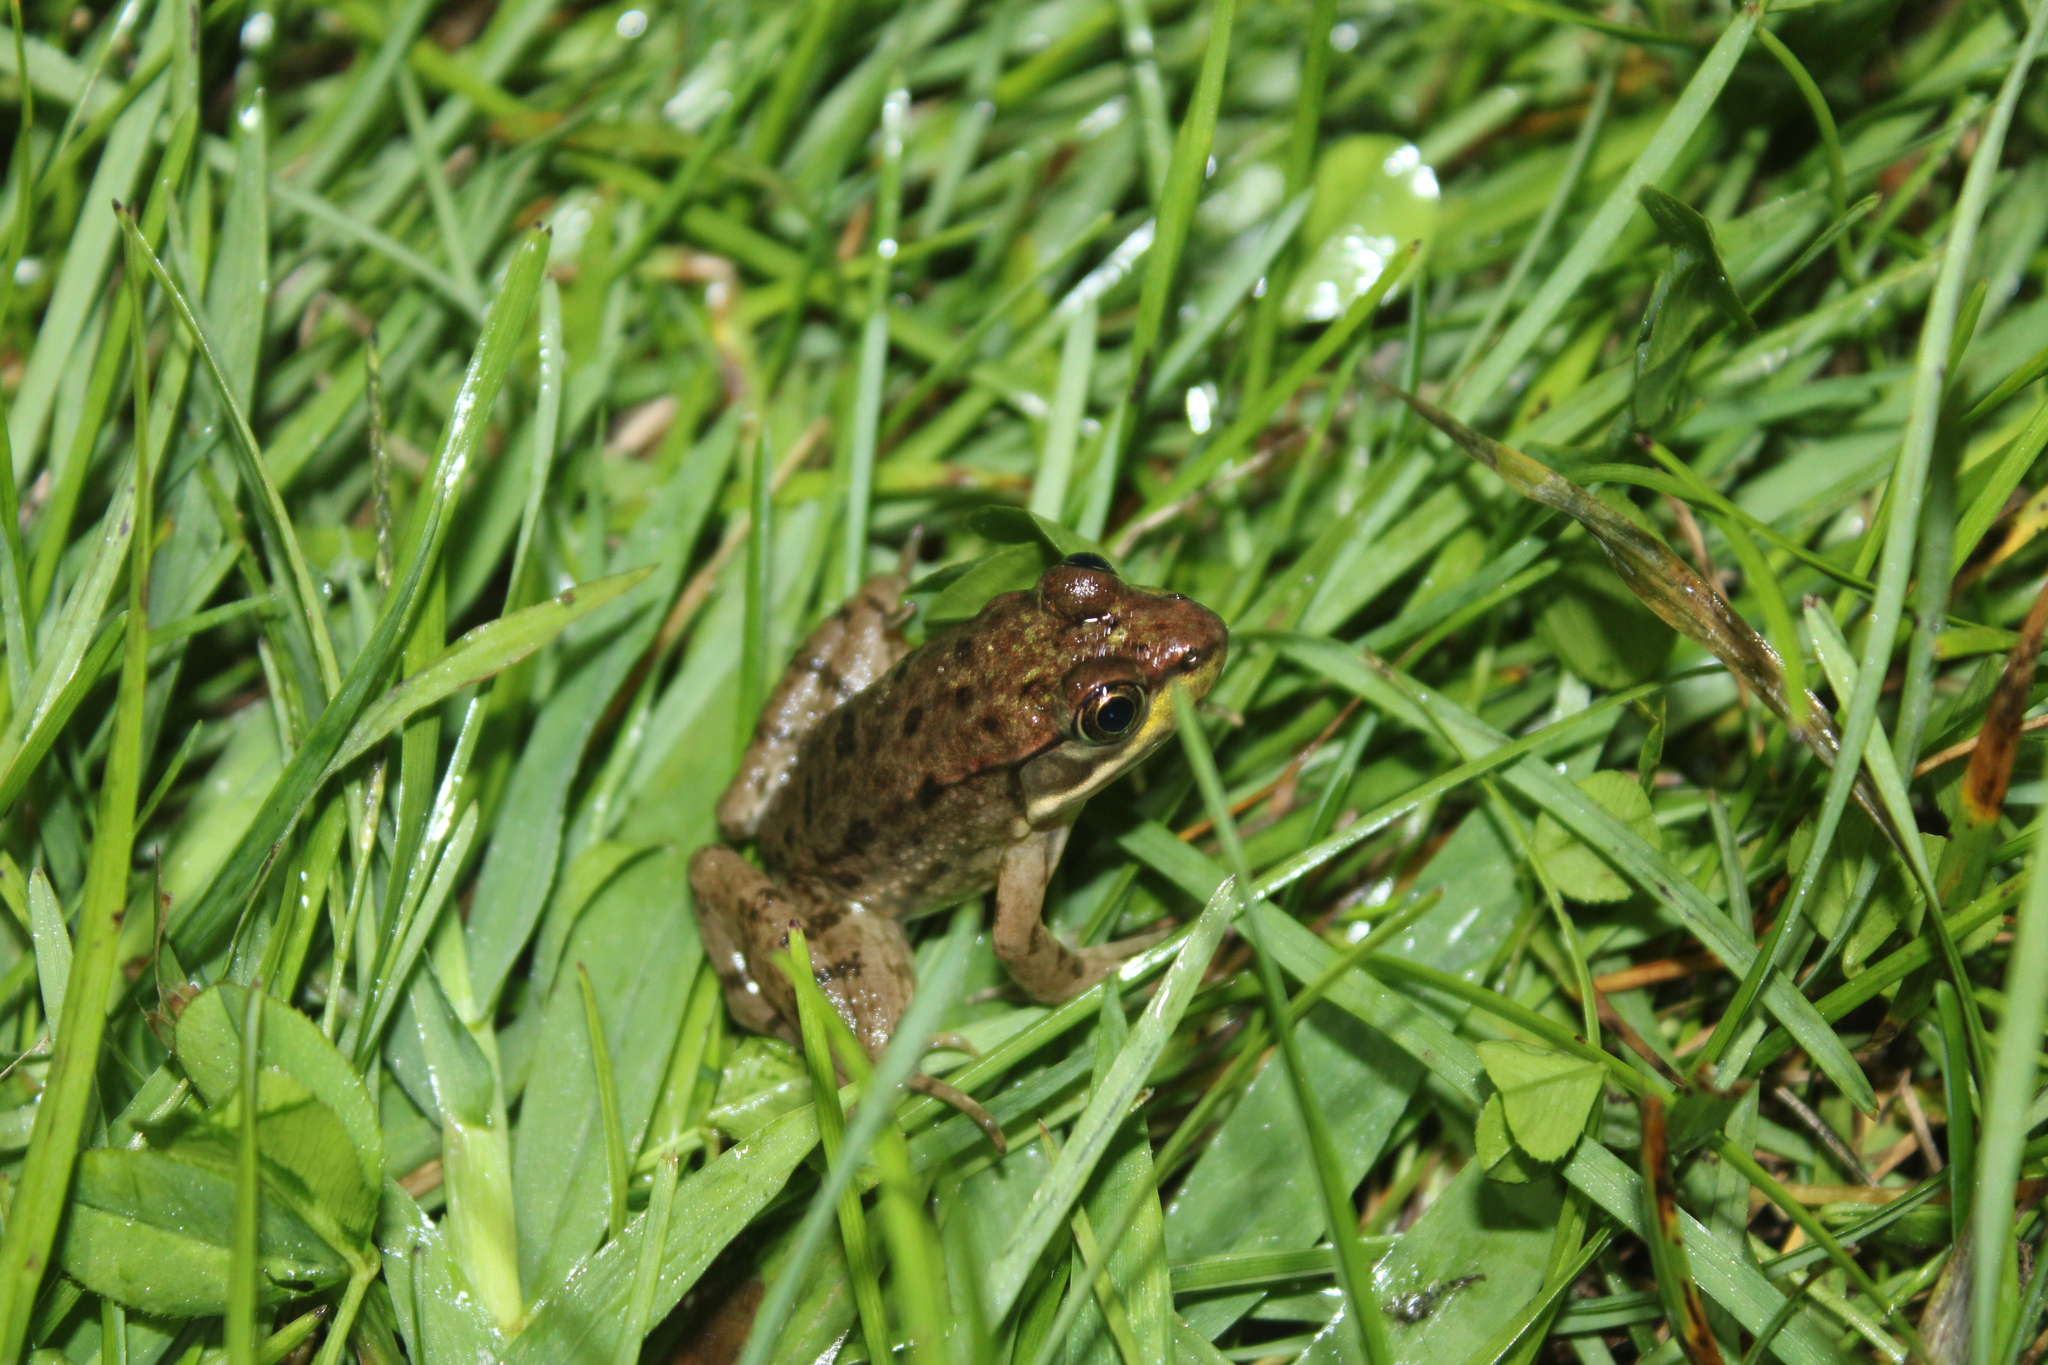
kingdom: Animalia
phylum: Chordata
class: Amphibia
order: Anura
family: Ranidae
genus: Lithobates
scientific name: Lithobates clamitans
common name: Green frog
